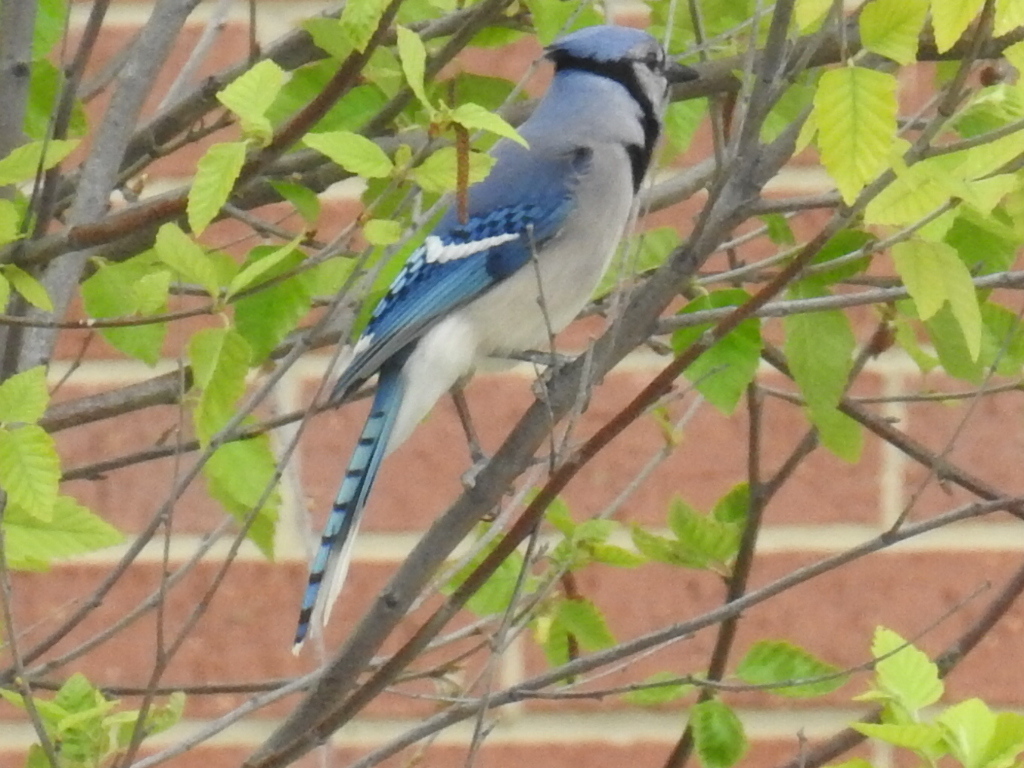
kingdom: Animalia
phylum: Chordata
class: Aves
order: Passeriformes
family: Corvidae
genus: Cyanocitta
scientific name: Cyanocitta cristata
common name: Blue jay
